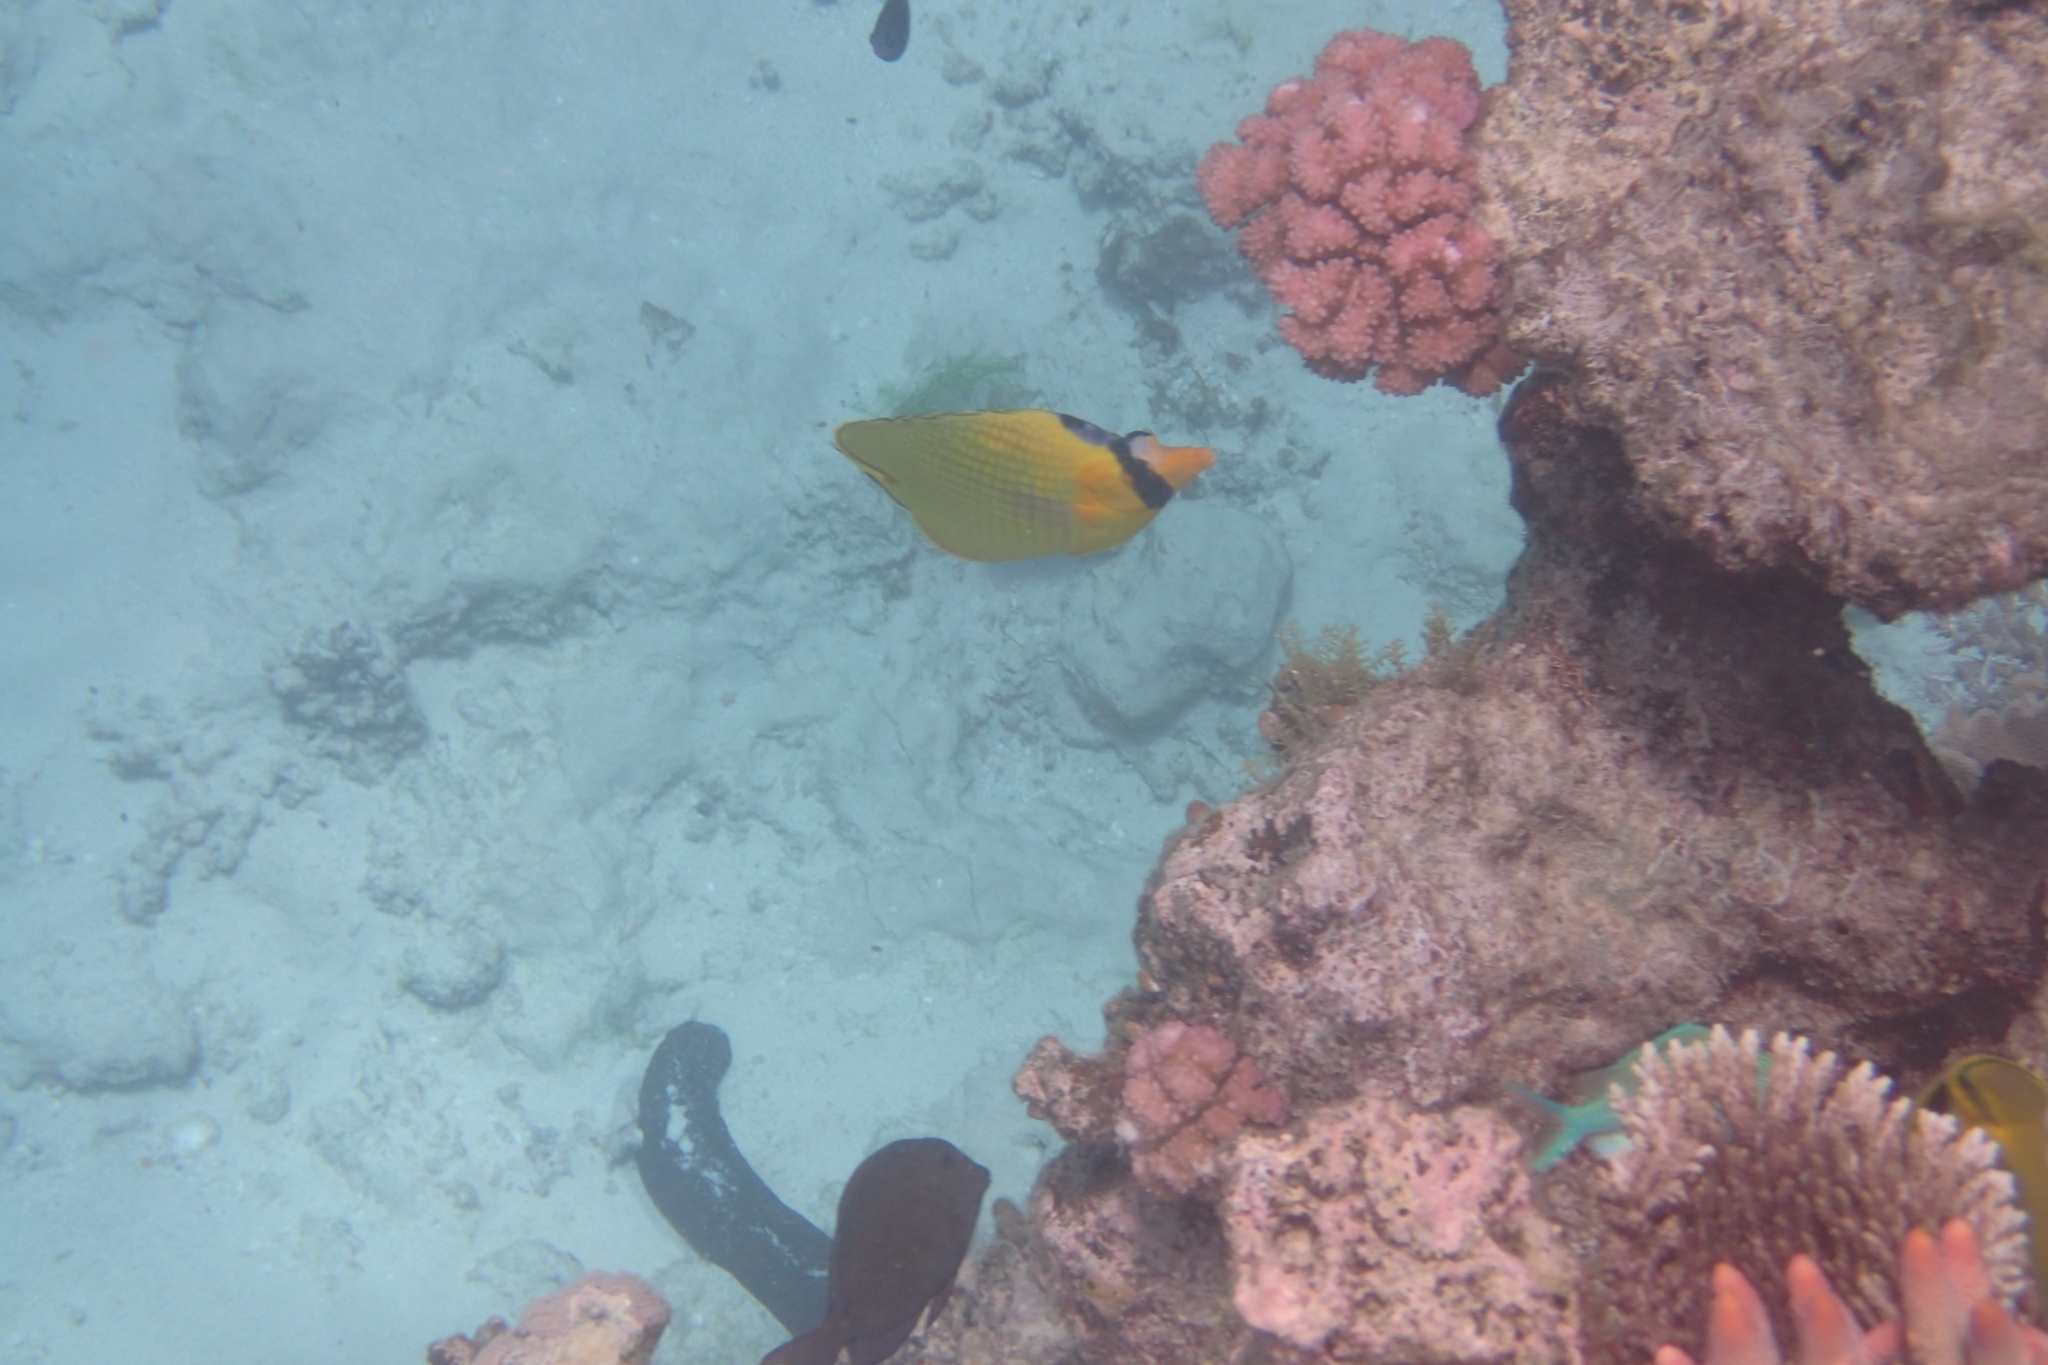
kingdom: Animalia
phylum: Chordata
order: Perciformes
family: Chaetodontidae
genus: Chaetodon
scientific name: Chaetodon rafflesii
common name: Latticed butterflyfish
